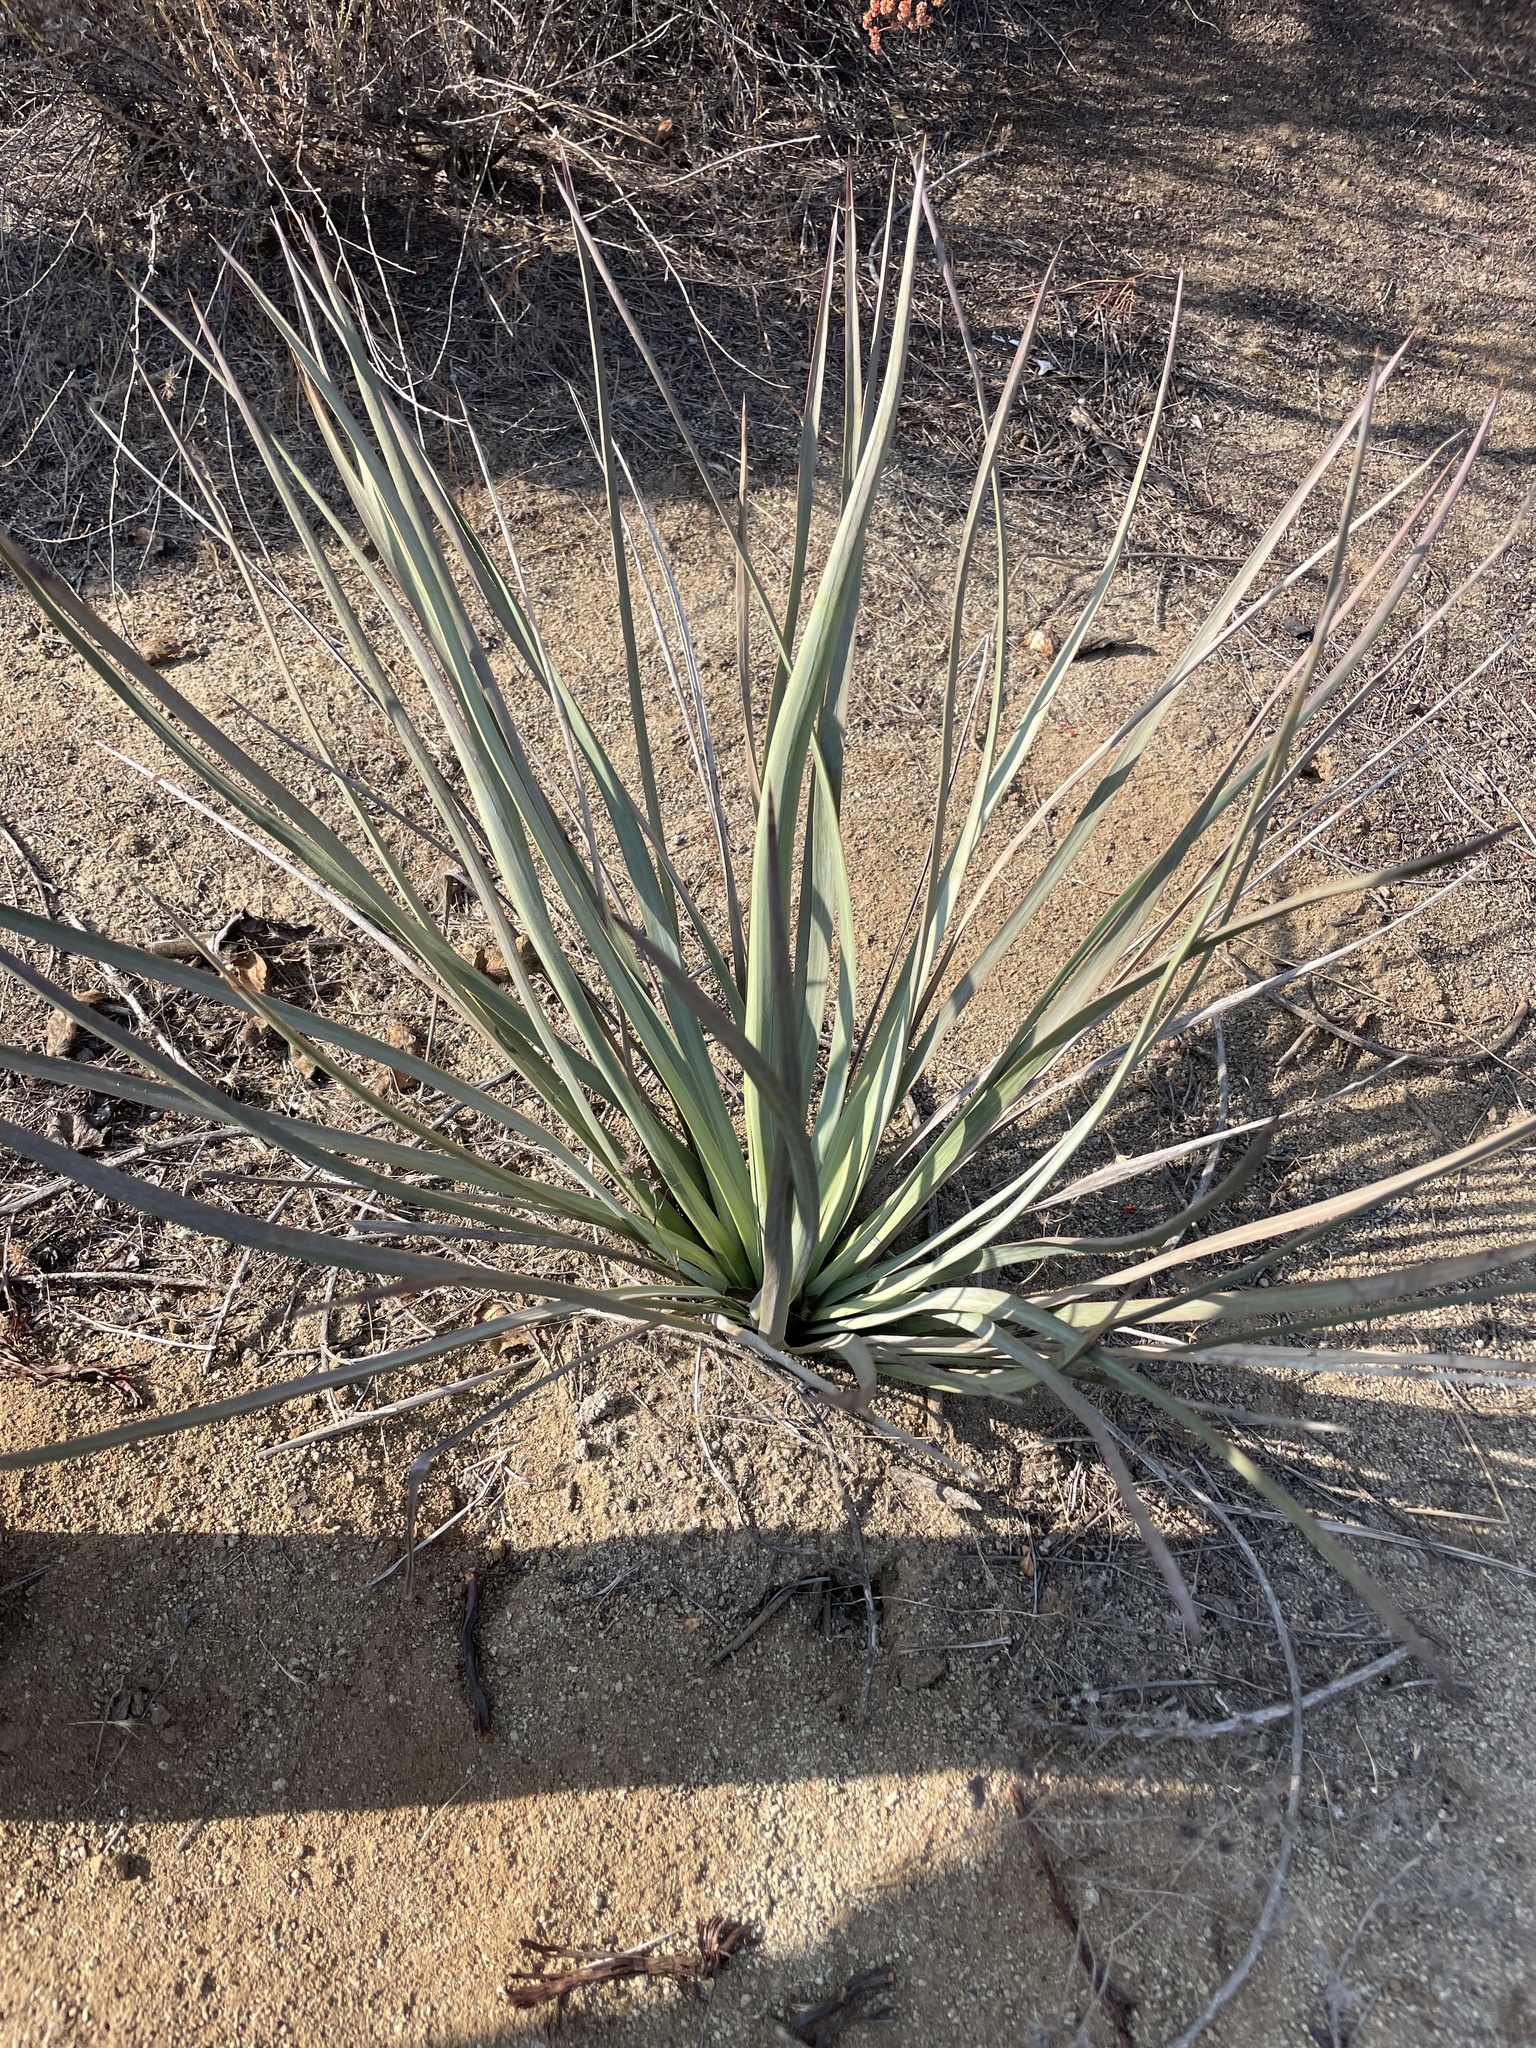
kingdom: Plantae
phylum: Tracheophyta
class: Liliopsida
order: Asparagales
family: Asparagaceae
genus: Hesperoyucca
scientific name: Hesperoyucca whipplei
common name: Our lord's-candle
